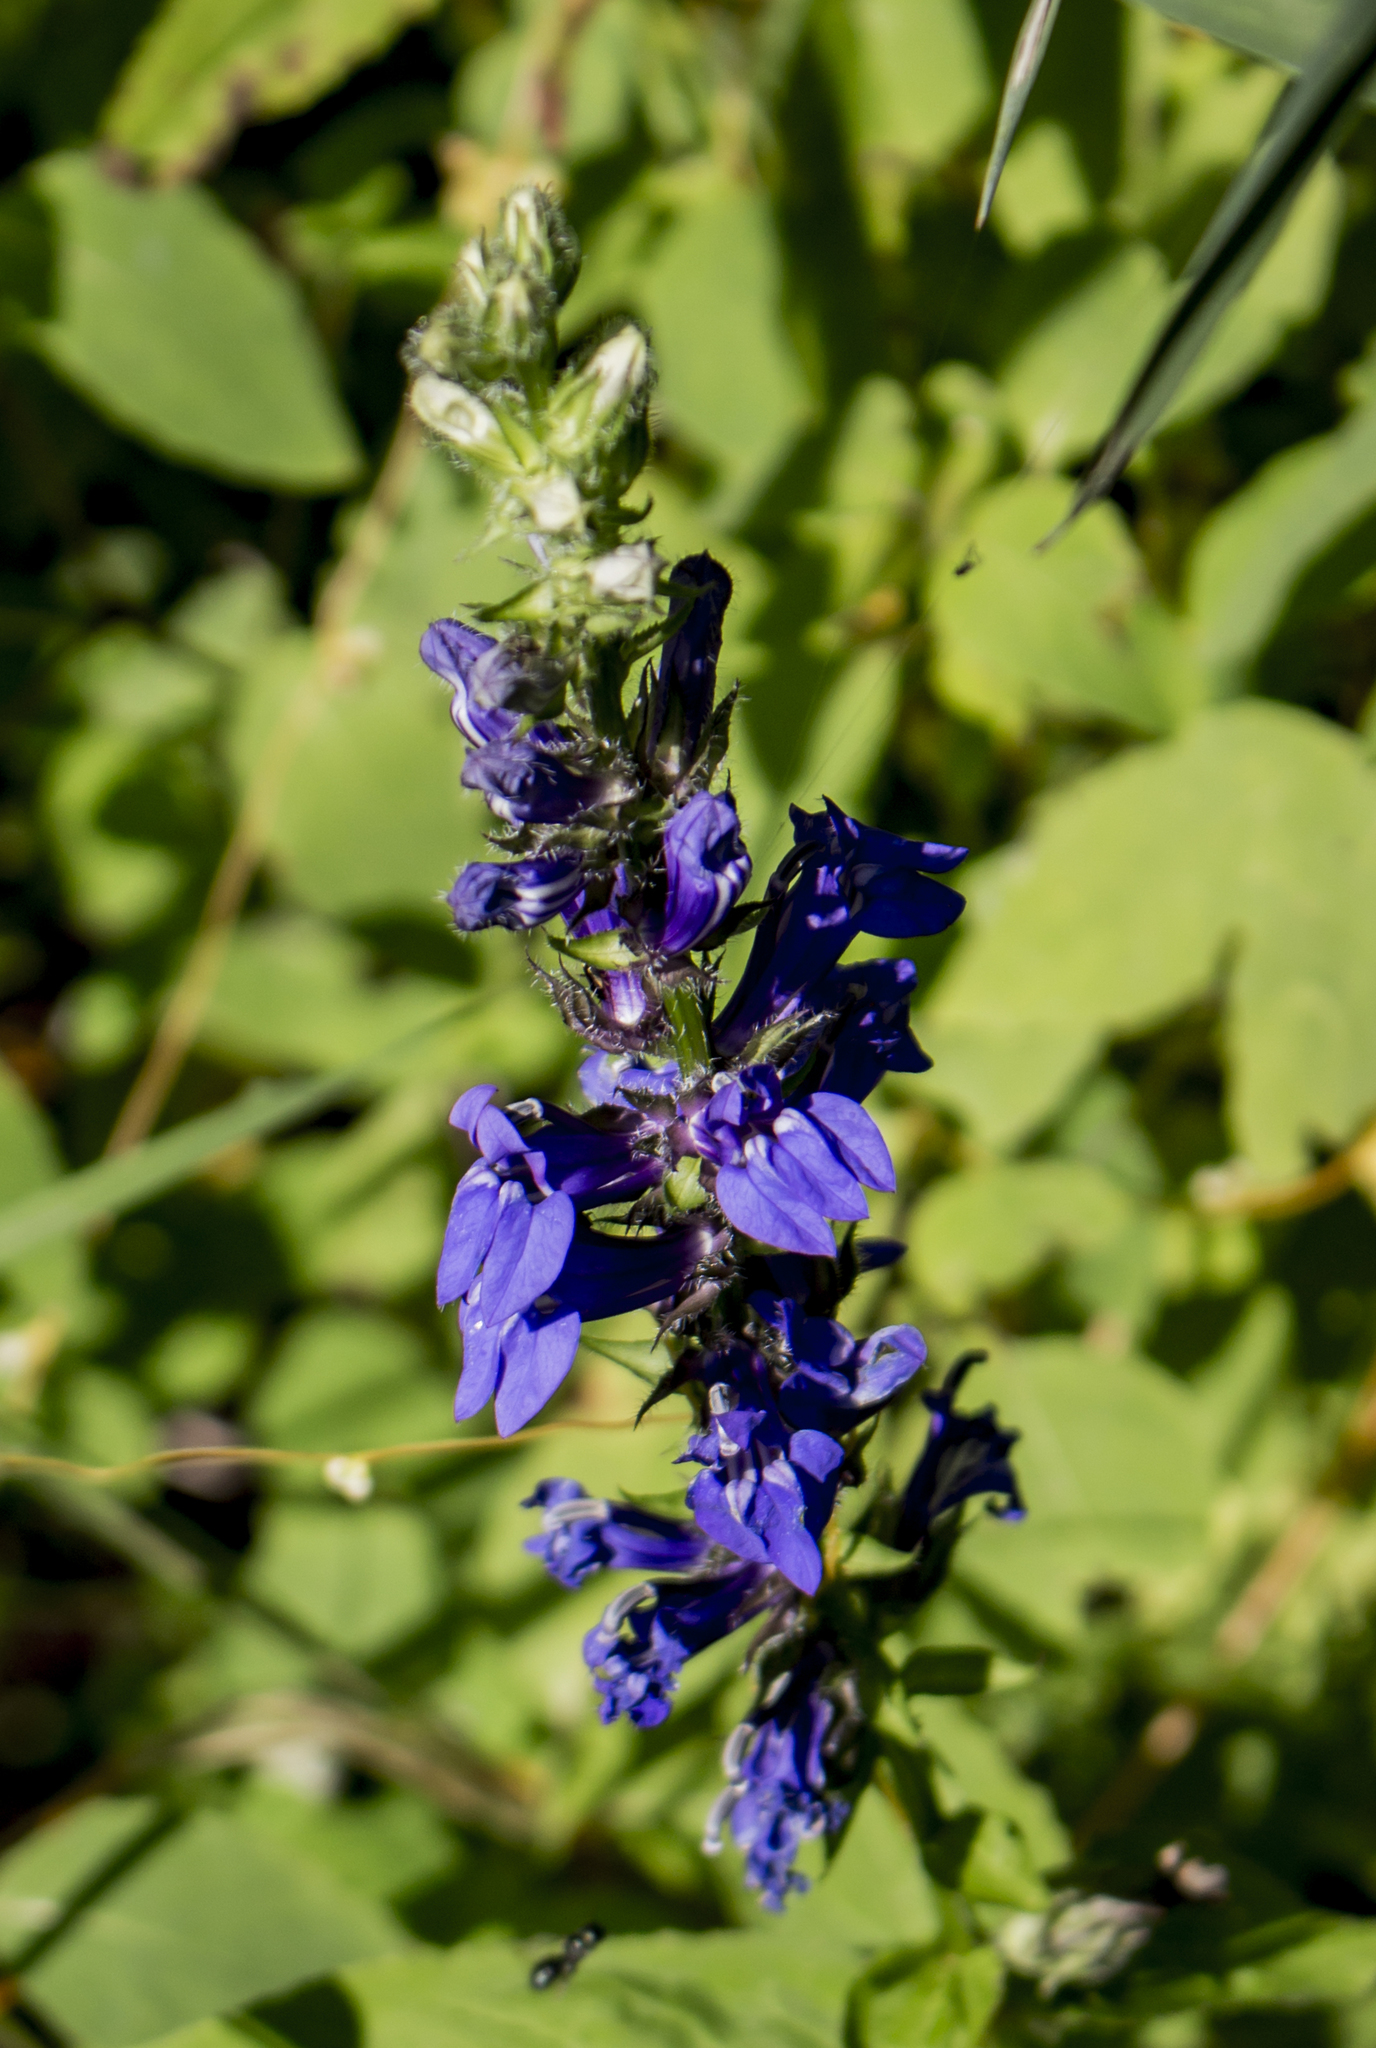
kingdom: Plantae
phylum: Tracheophyta
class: Magnoliopsida
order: Asterales
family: Campanulaceae
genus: Lobelia
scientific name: Lobelia siphilitica
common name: Great lobelia
